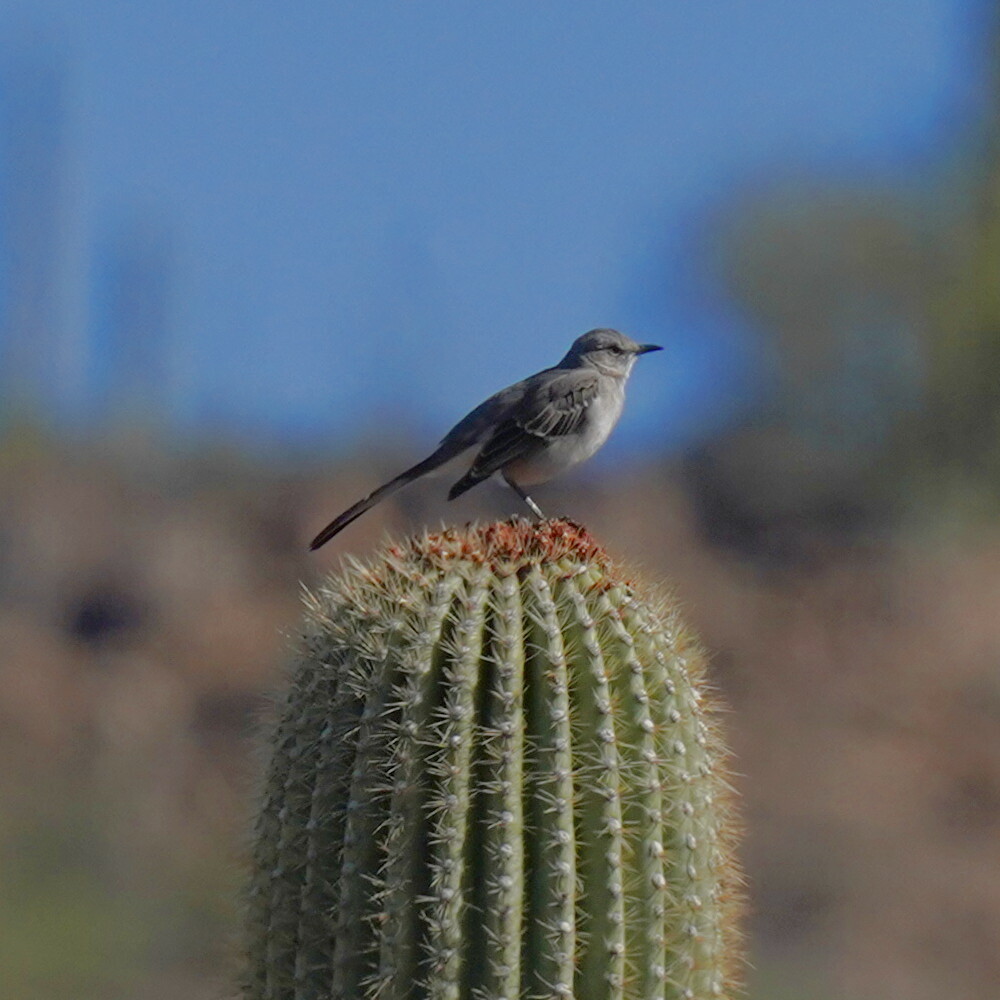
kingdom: Animalia
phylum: Chordata
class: Aves
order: Passeriformes
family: Mimidae
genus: Mimus
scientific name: Mimus polyglottos
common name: Northern mockingbird
